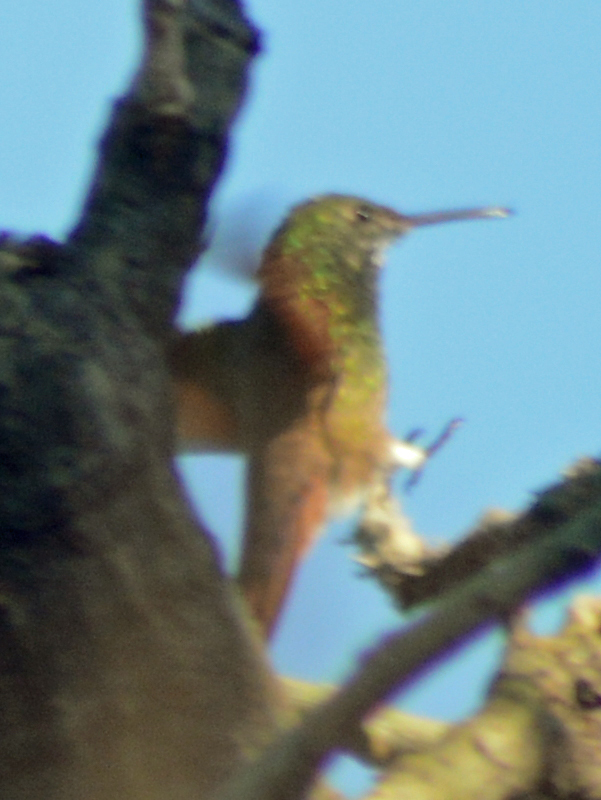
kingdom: Animalia
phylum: Chordata
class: Aves
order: Apodiformes
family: Trochilidae
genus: Saucerottia
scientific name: Saucerottia beryllina
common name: Berylline hummingbird
